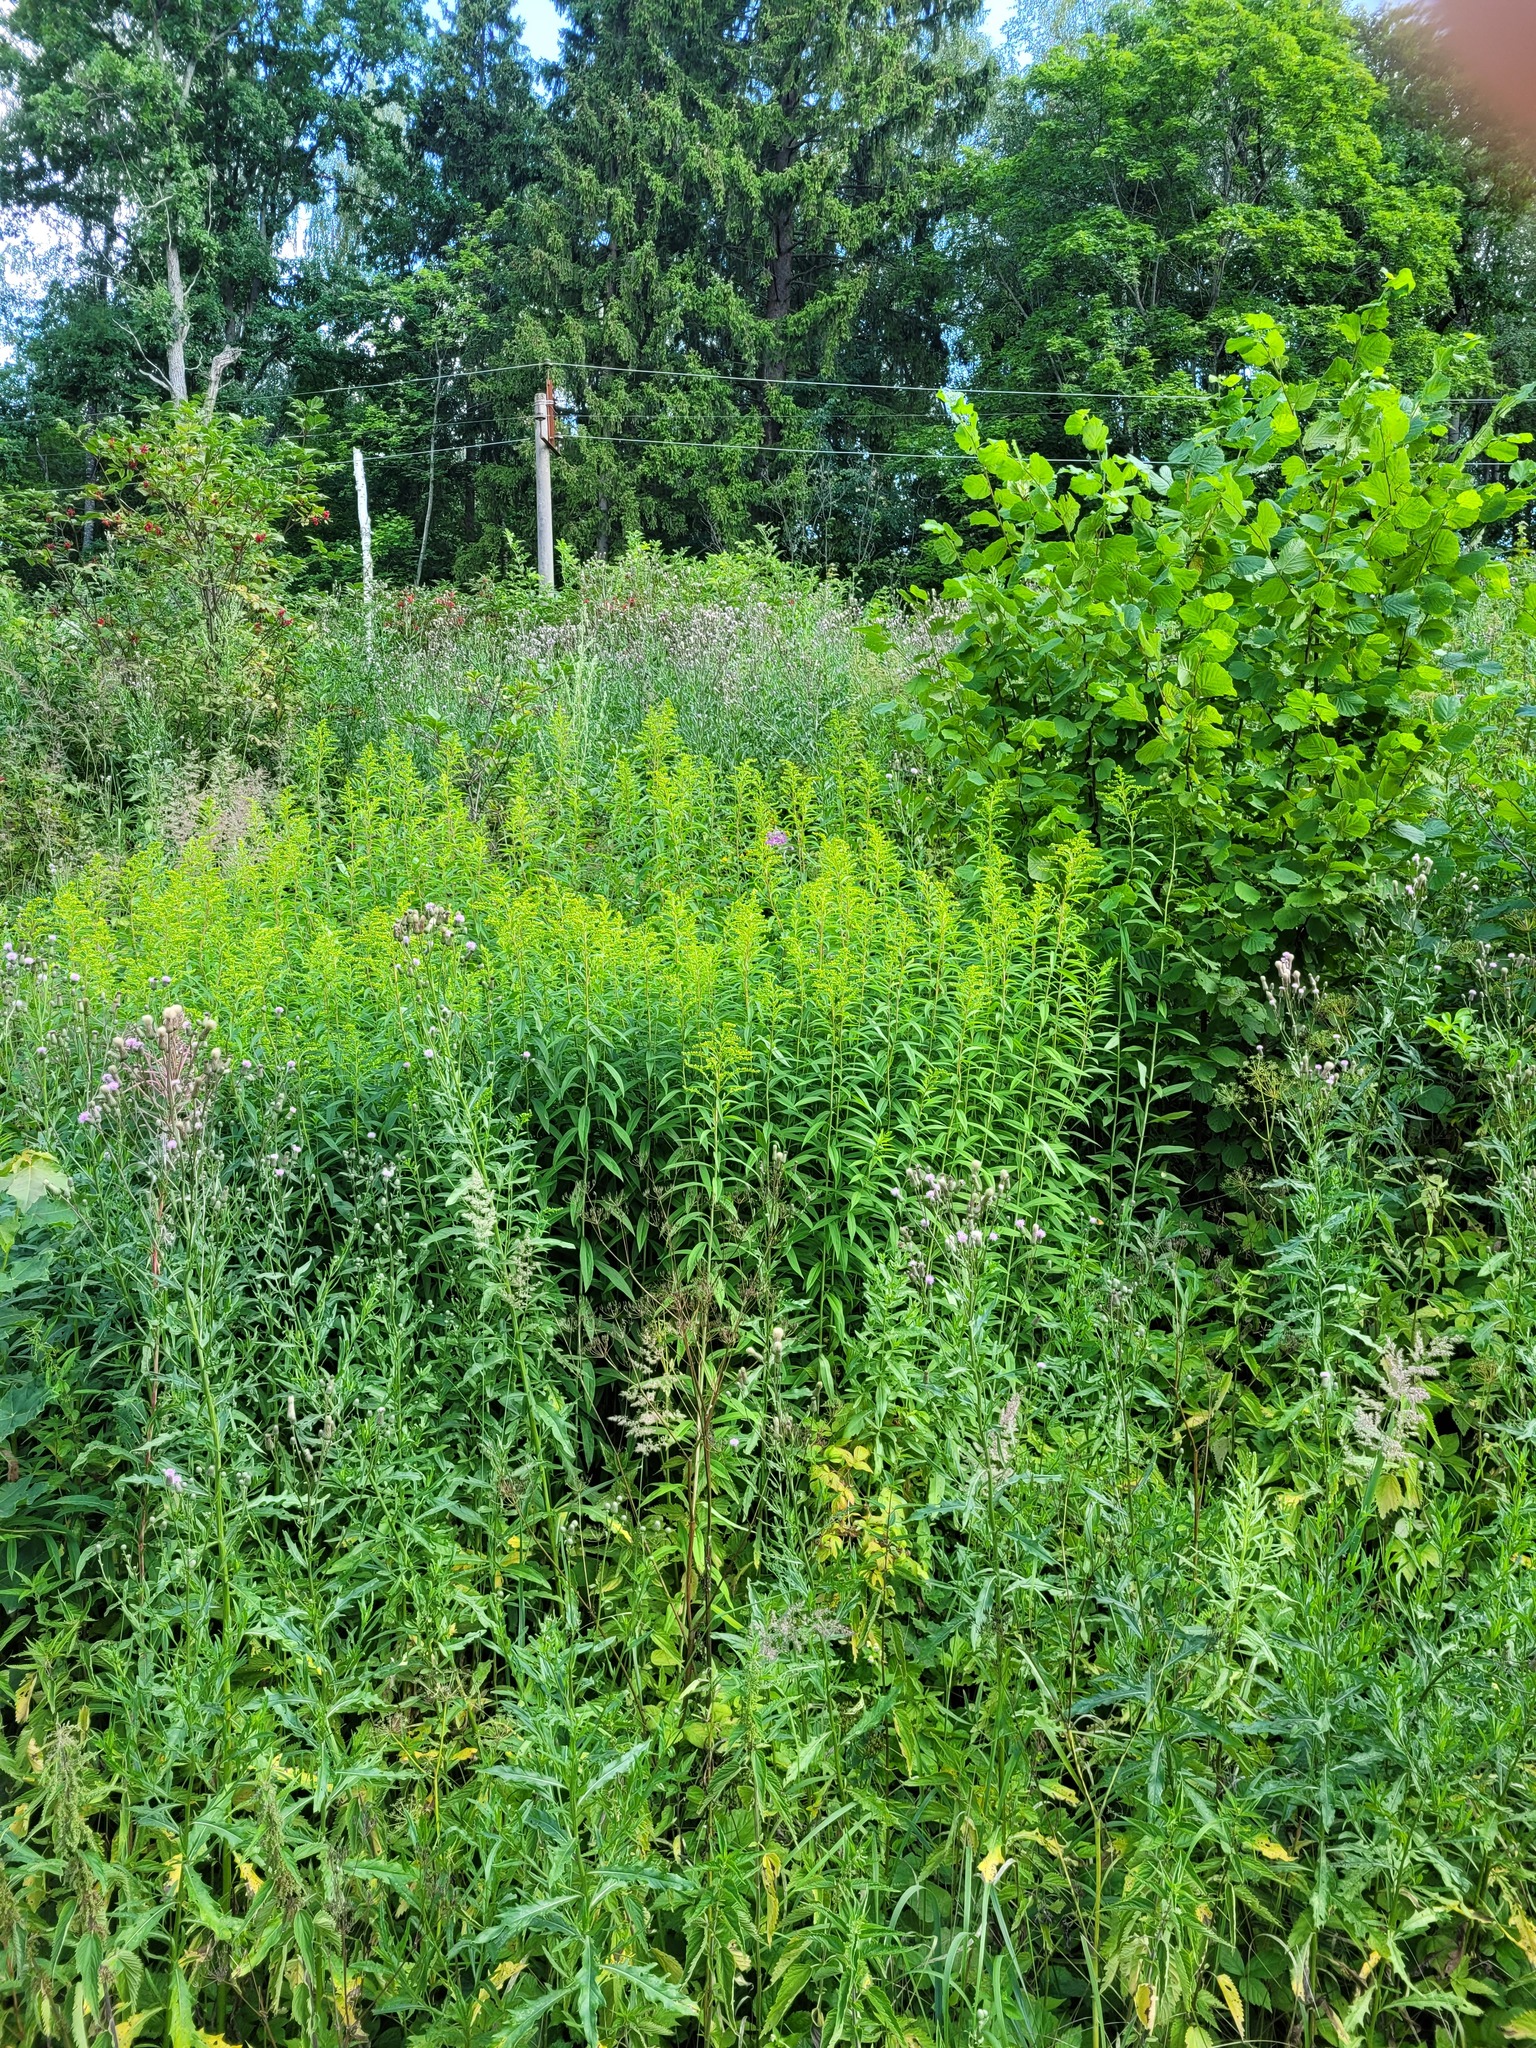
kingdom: Plantae
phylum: Tracheophyta
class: Magnoliopsida
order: Asterales
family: Asteraceae
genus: Solidago
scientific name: Solidago gigantea
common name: Giant goldenrod
